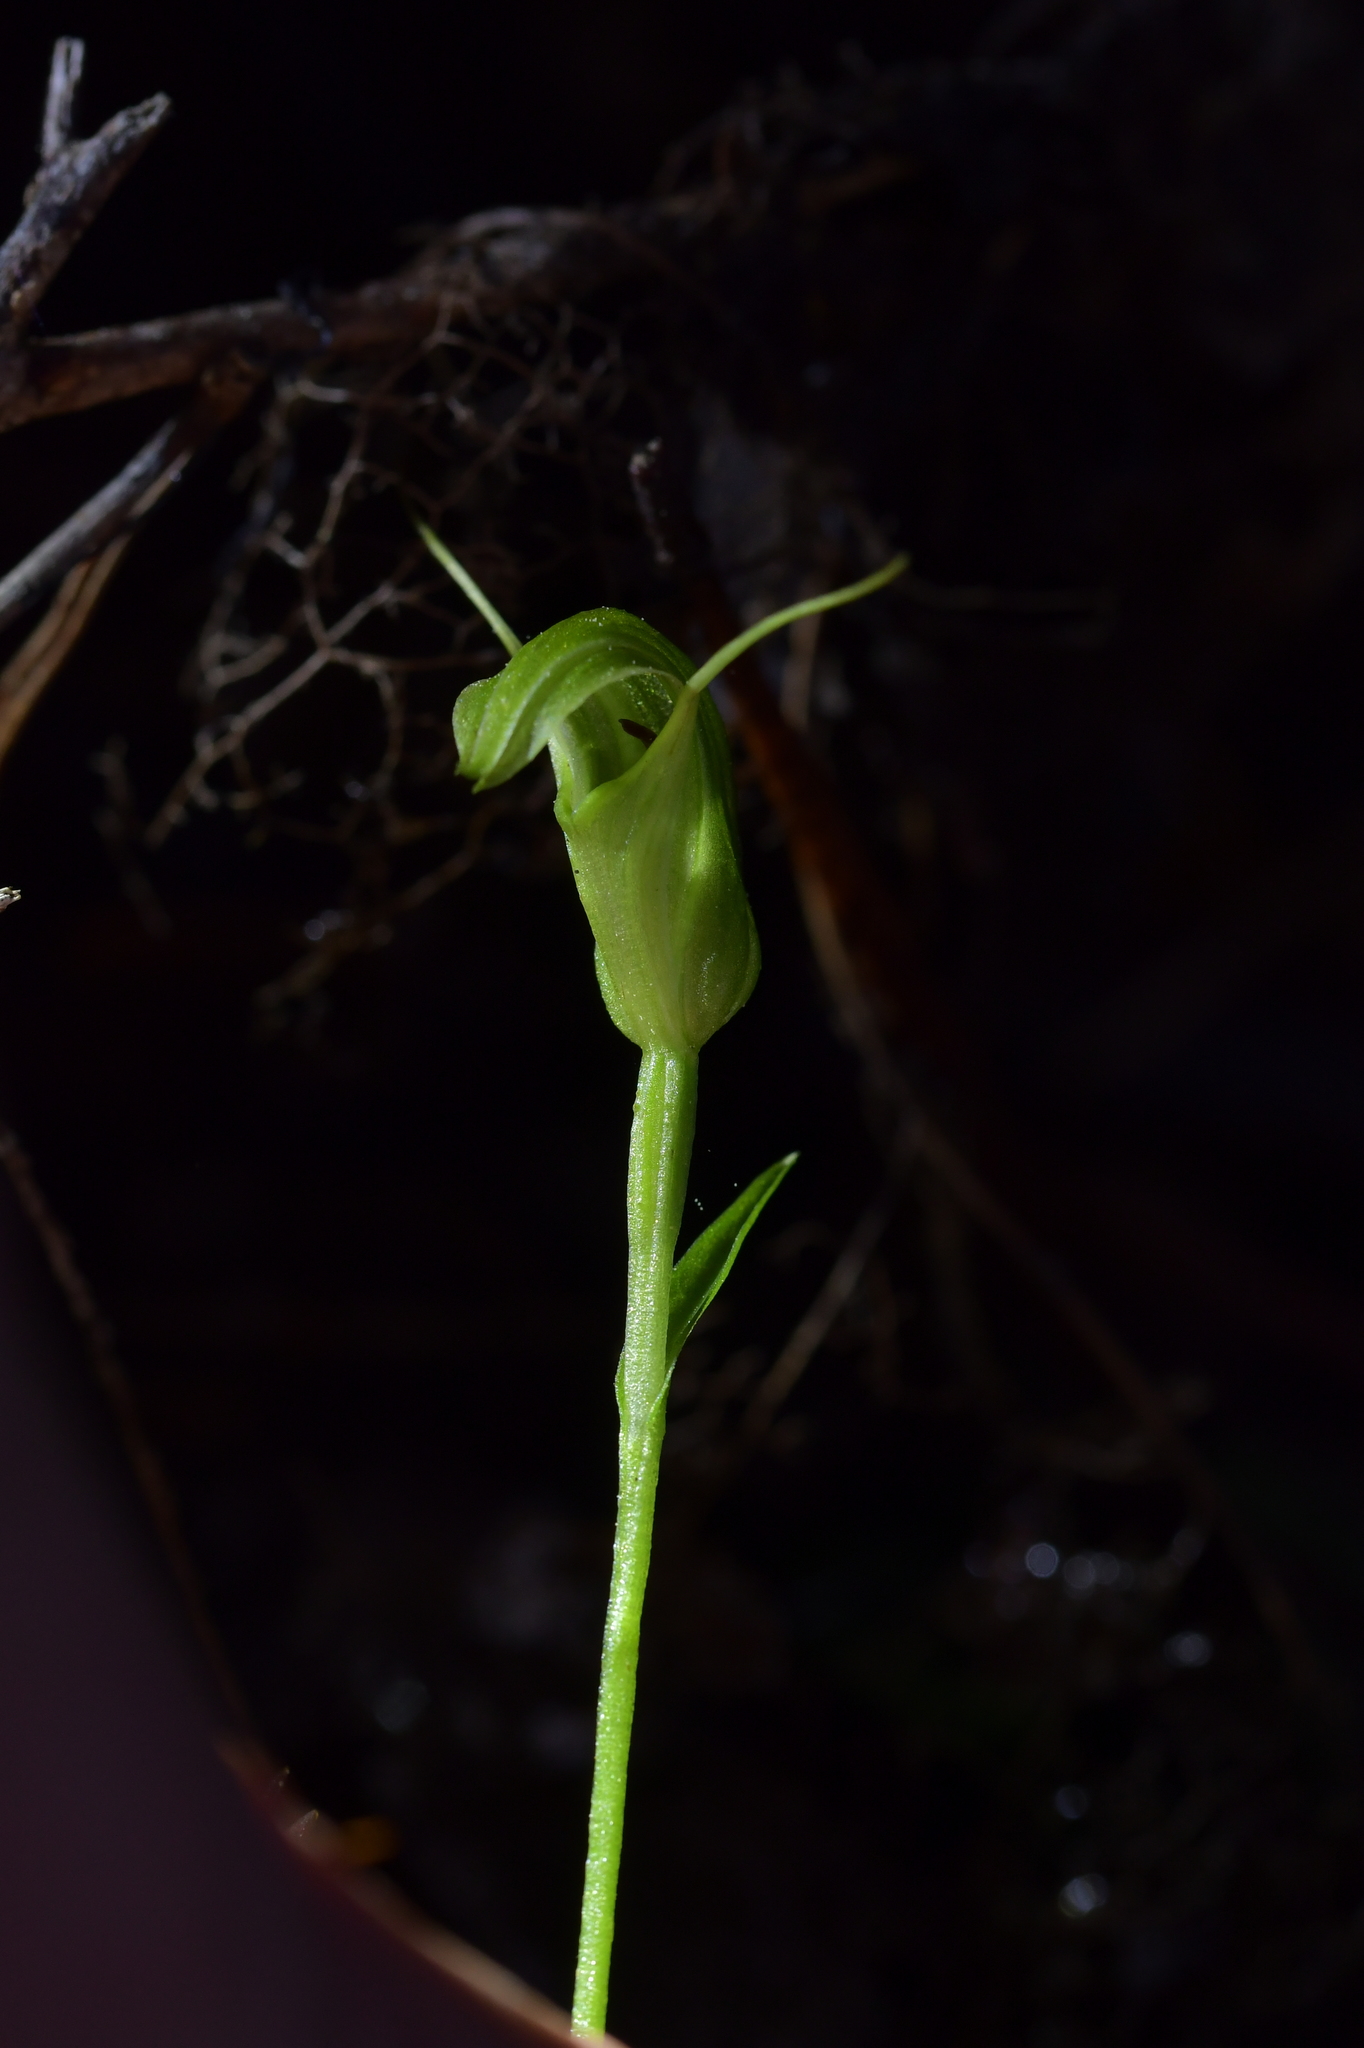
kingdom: Plantae
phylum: Tracheophyta
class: Liliopsida
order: Asparagales
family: Orchidaceae
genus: Pterostylis
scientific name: Pterostylis trullifolia
